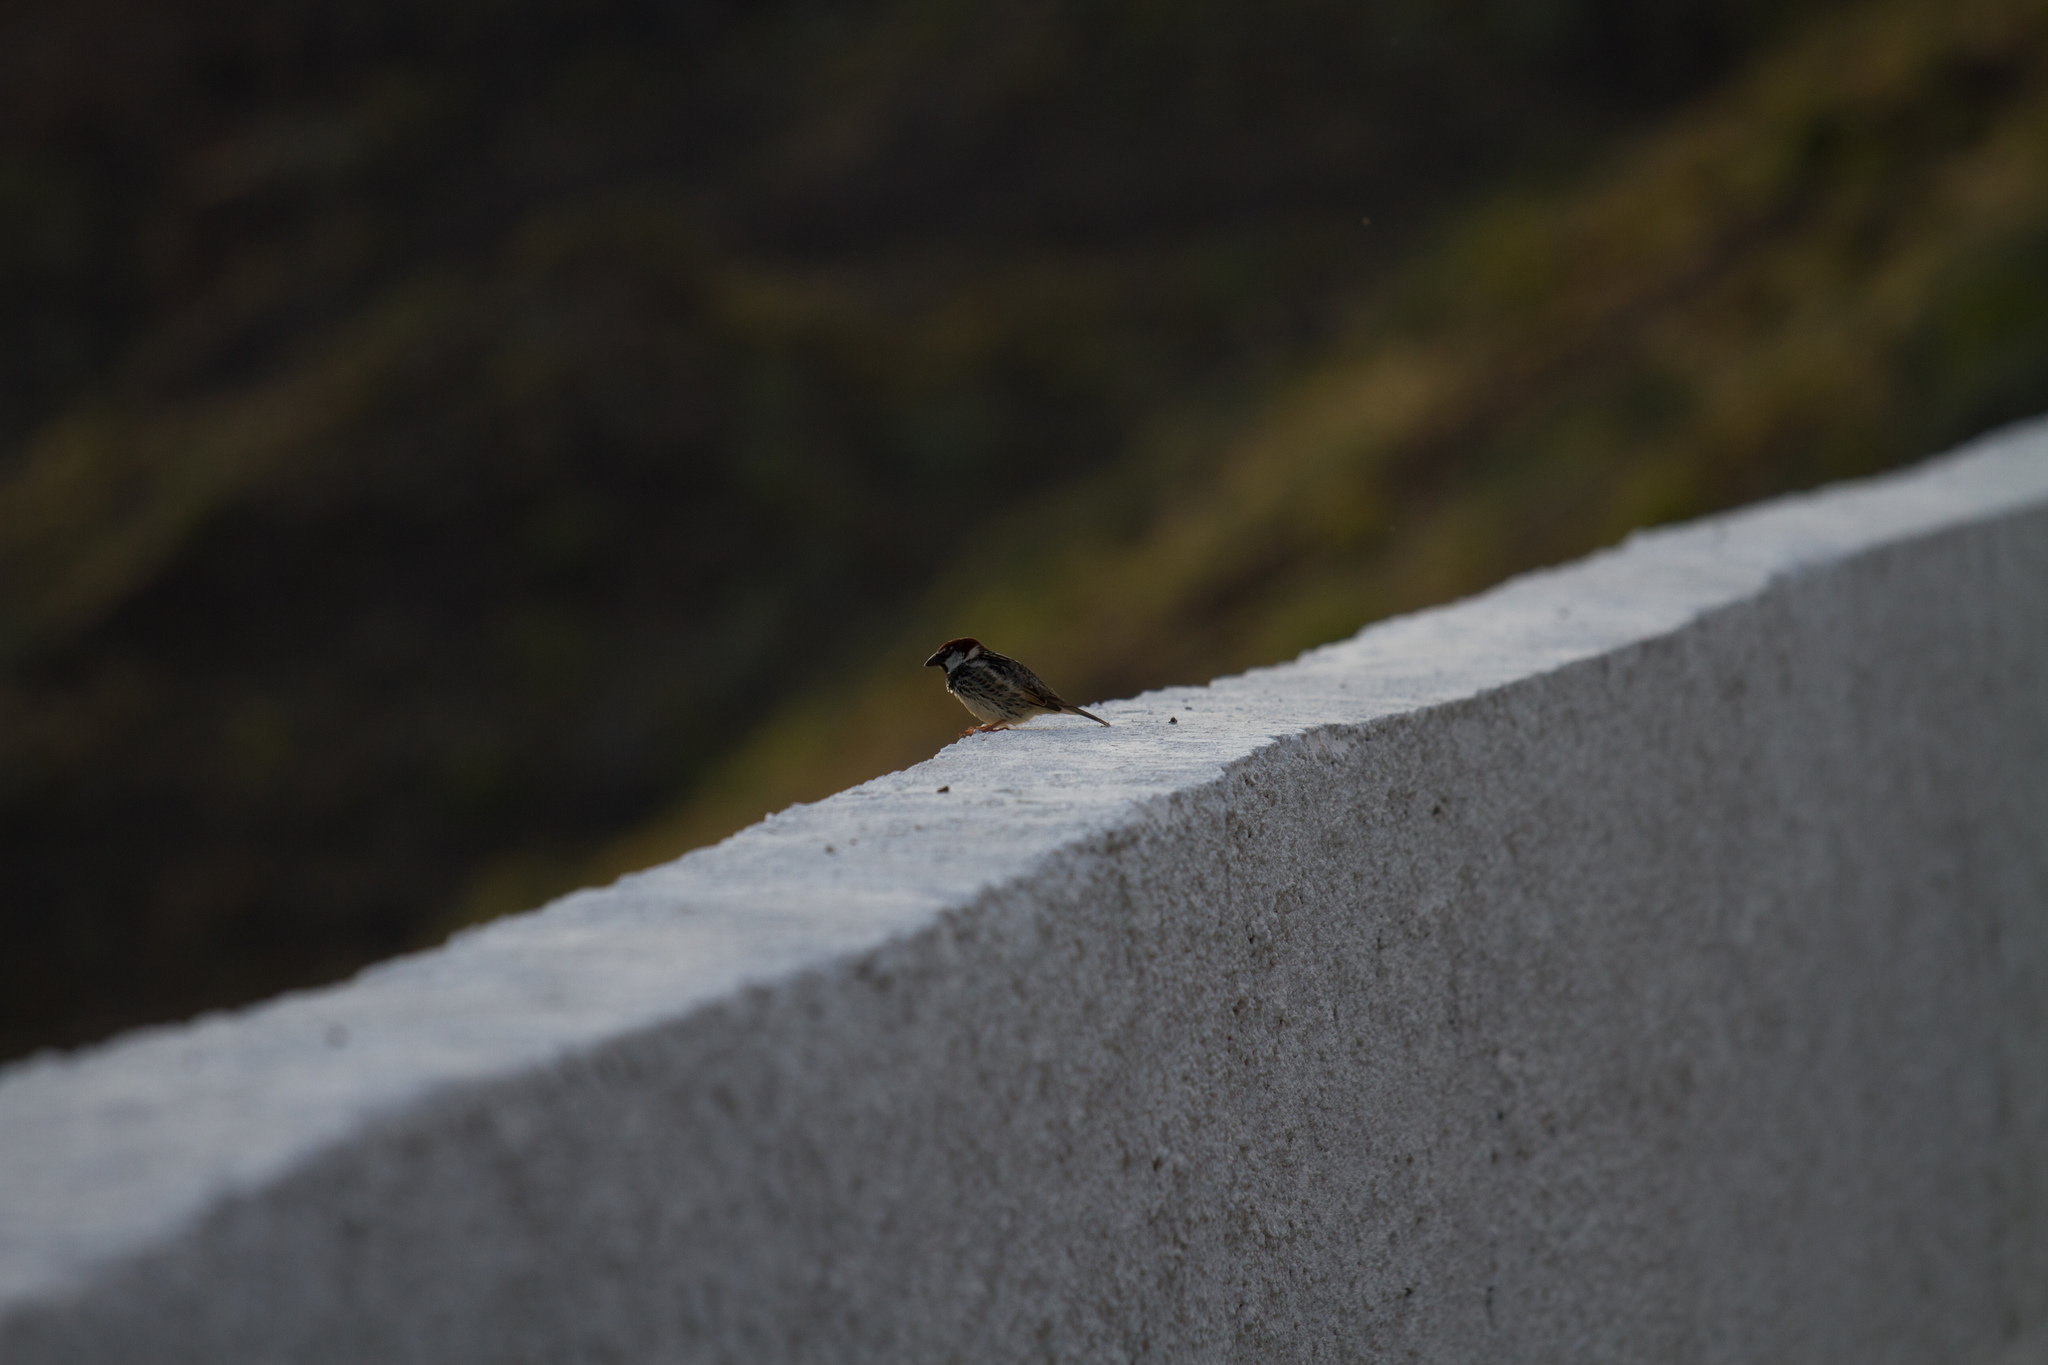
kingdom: Animalia
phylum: Chordata
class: Aves
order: Passeriformes
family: Passeridae
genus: Passer
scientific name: Passer hispaniolensis
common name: Spanish sparrow
